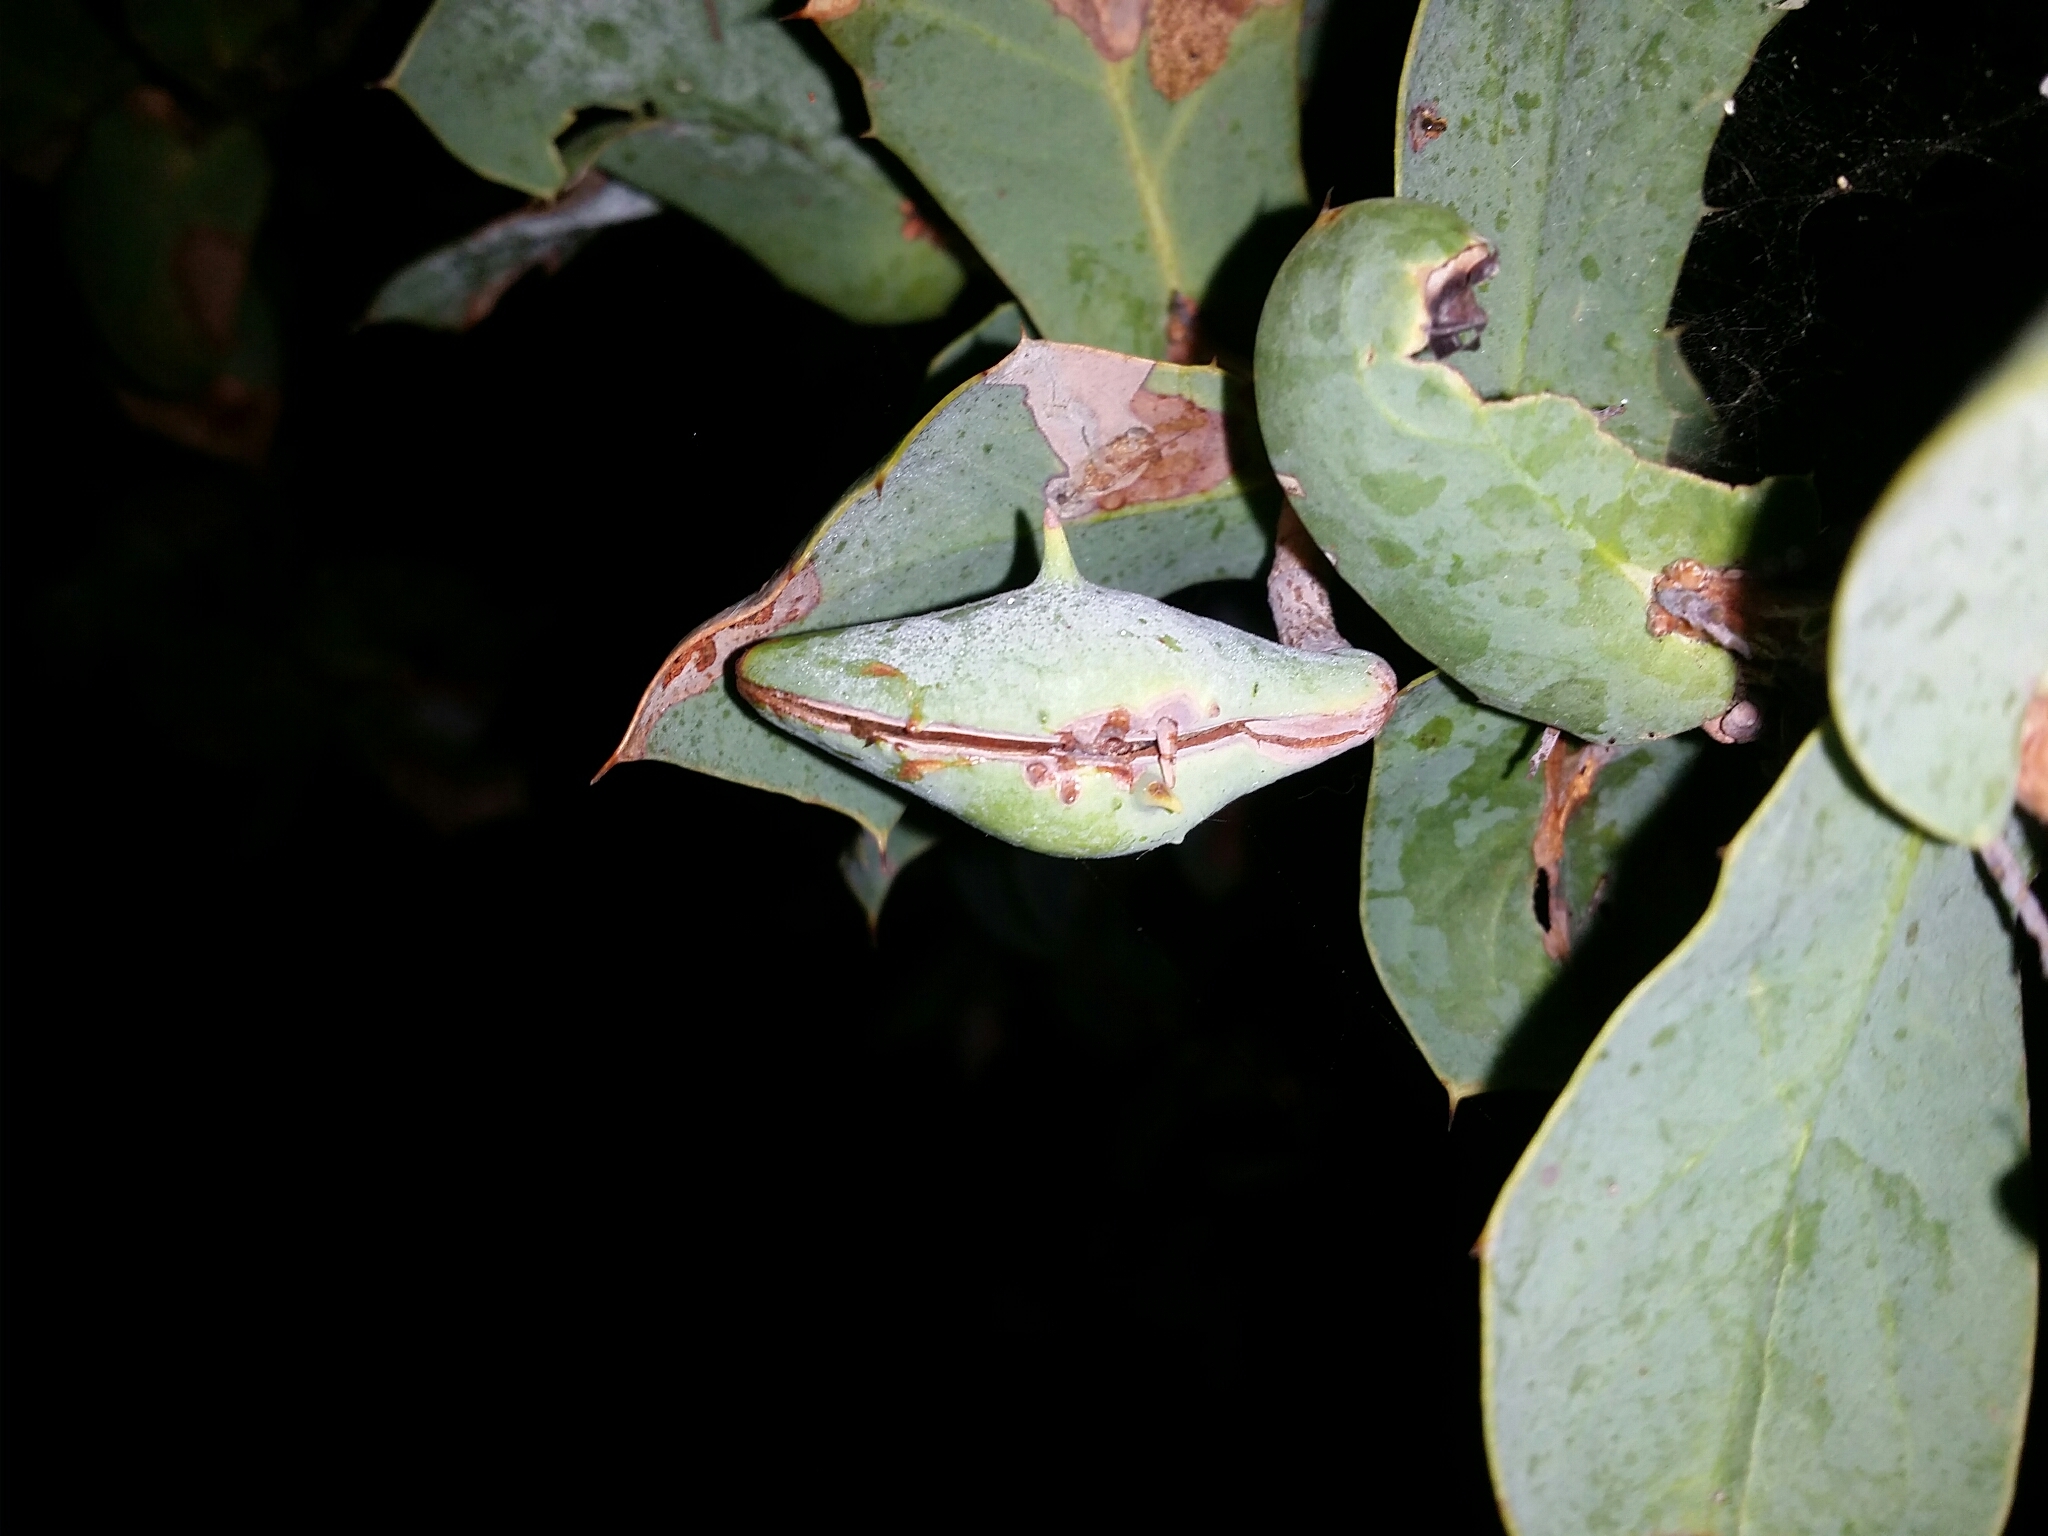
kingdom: Plantae
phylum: Tracheophyta
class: Magnoliopsida
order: Proteales
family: Proteaceae
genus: Hakea
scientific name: Hakea prostrata
